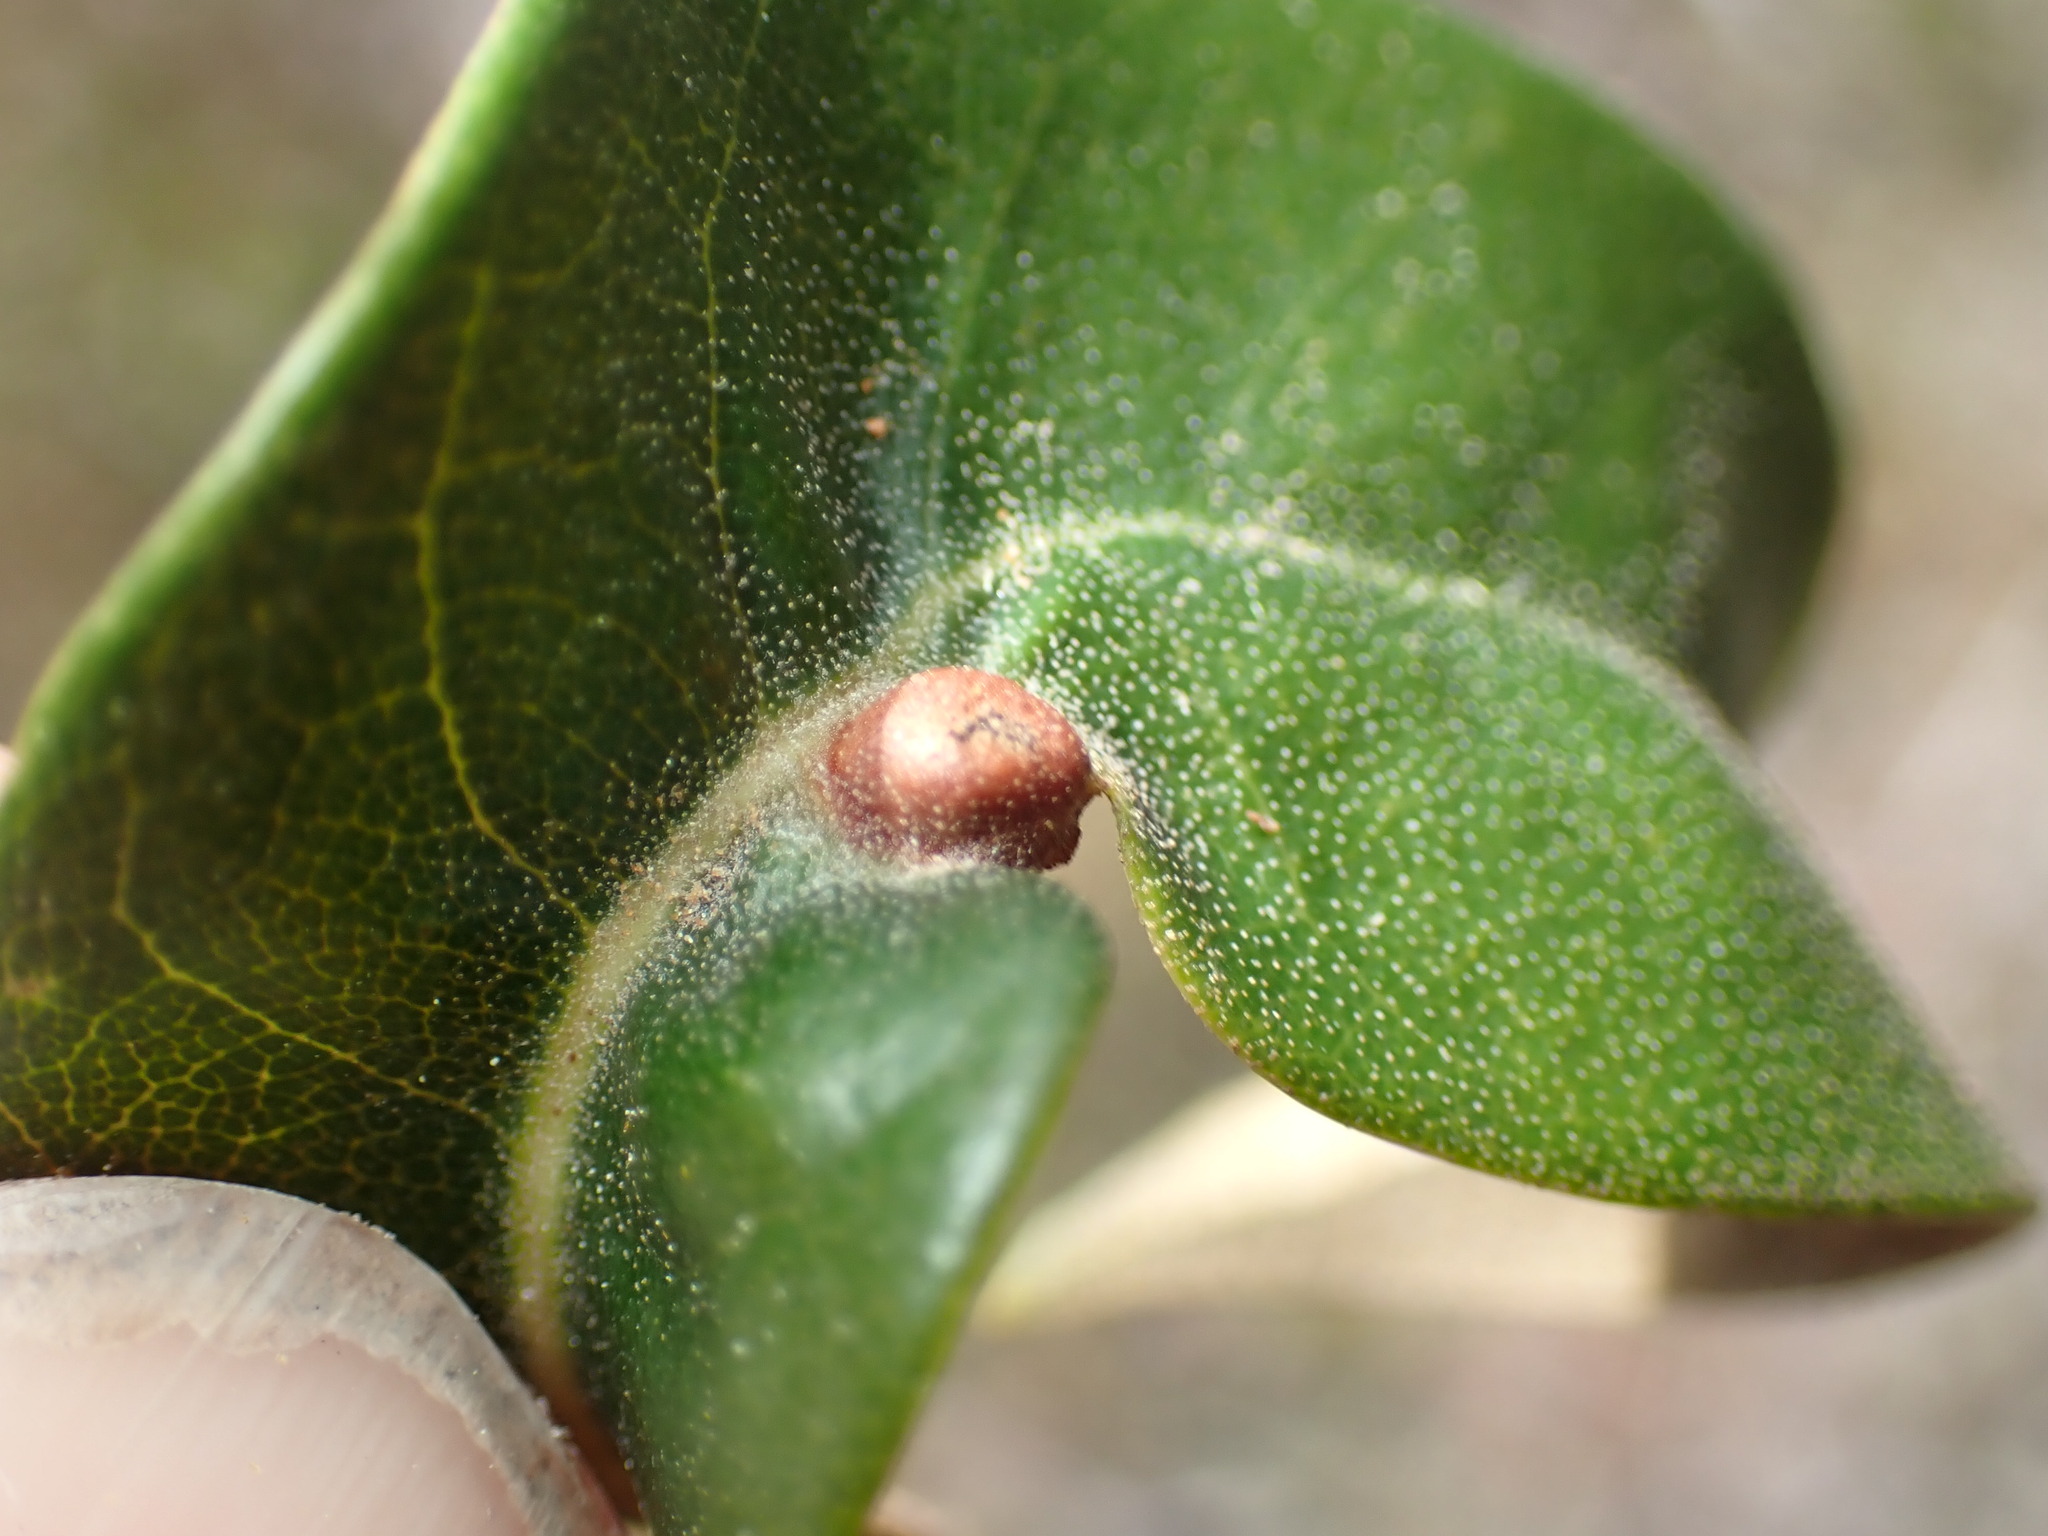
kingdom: Animalia
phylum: Arthropoda
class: Insecta
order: Hymenoptera
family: Cynipidae
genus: Dryocosmus
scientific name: Dryocosmus juliae
